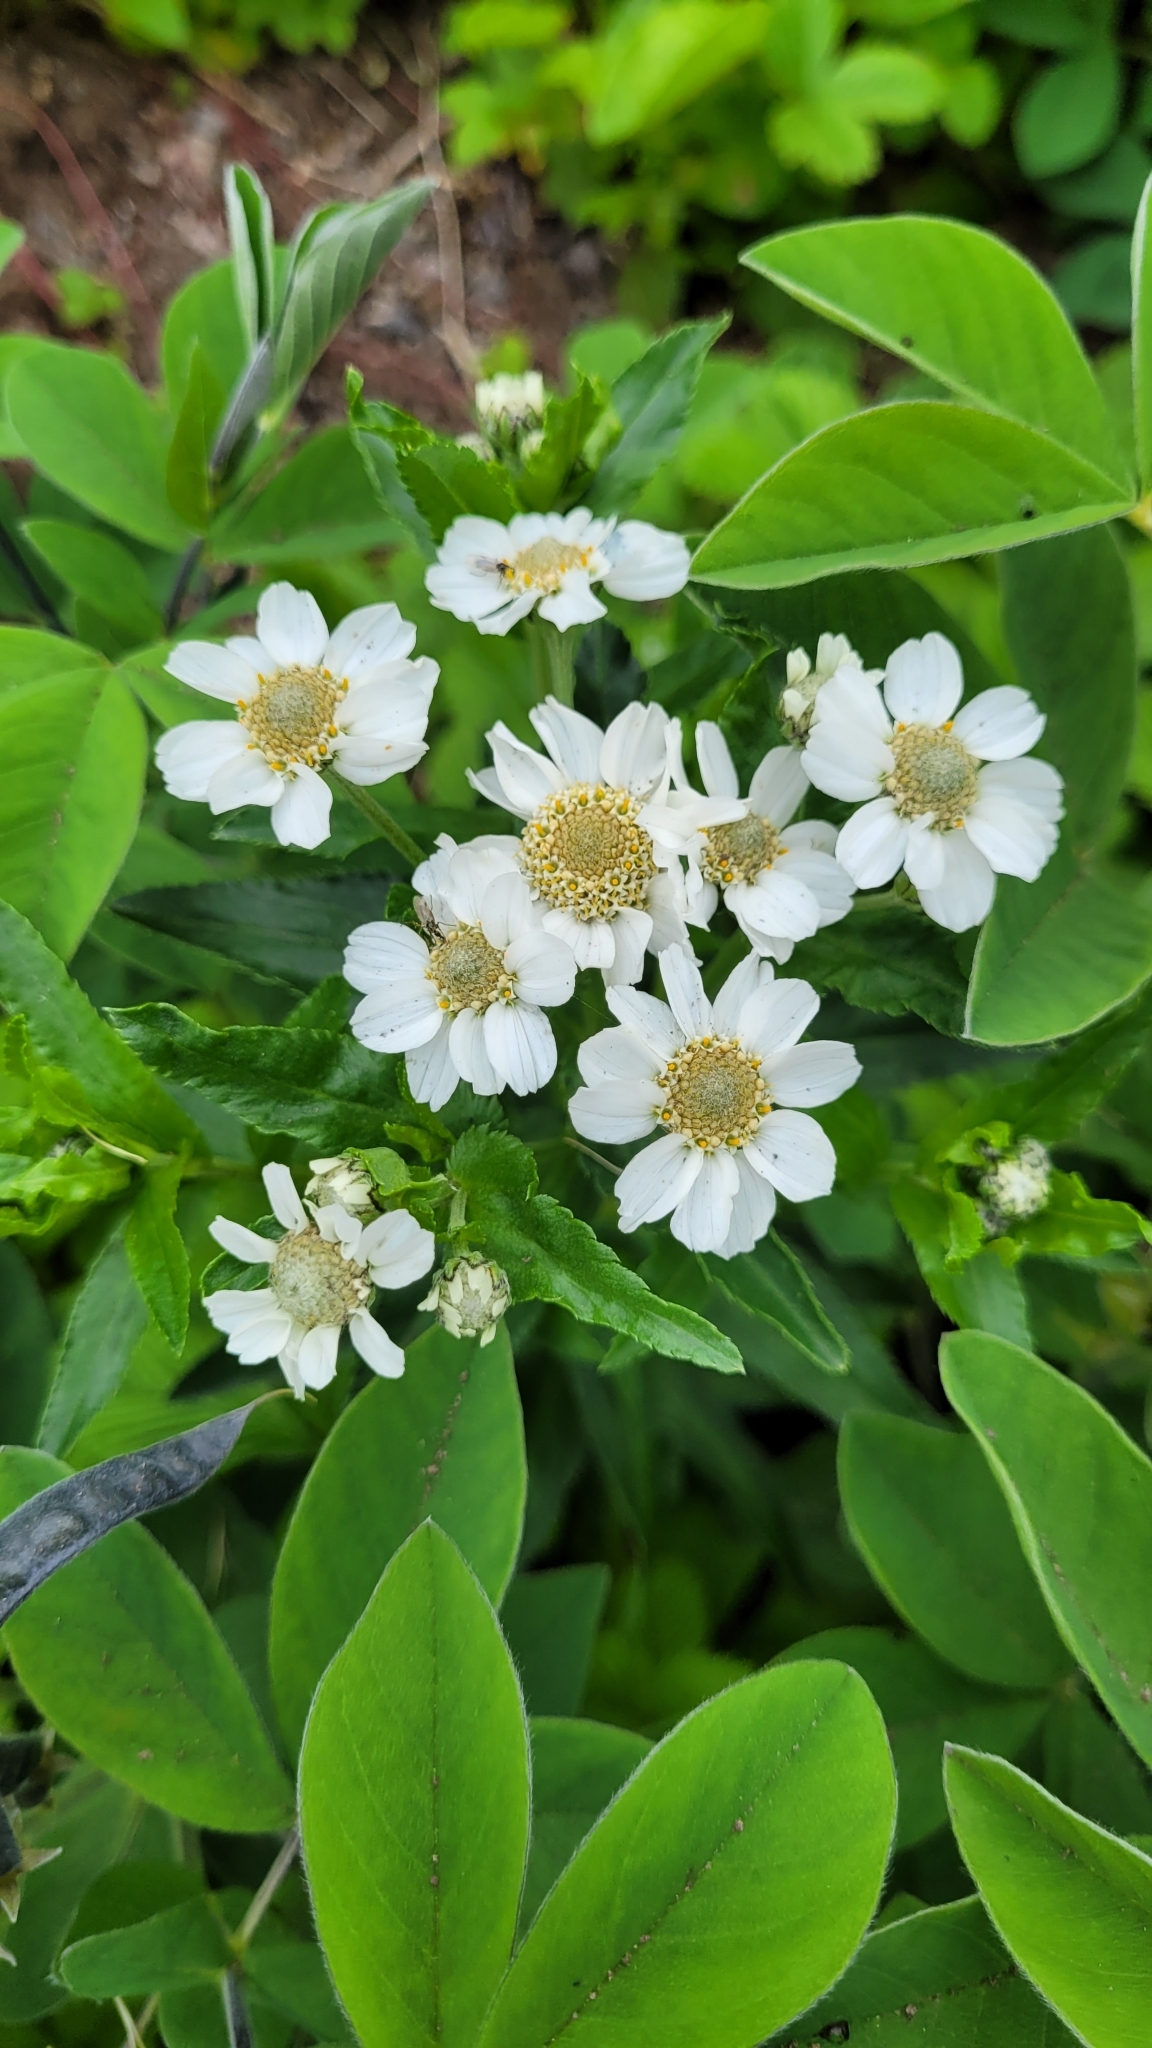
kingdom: Plantae
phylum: Tracheophyta
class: Magnoliopsida
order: Asterales
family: Asteraceae
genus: Achillea
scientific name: Achillea ptarmica
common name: Sneezeweed
